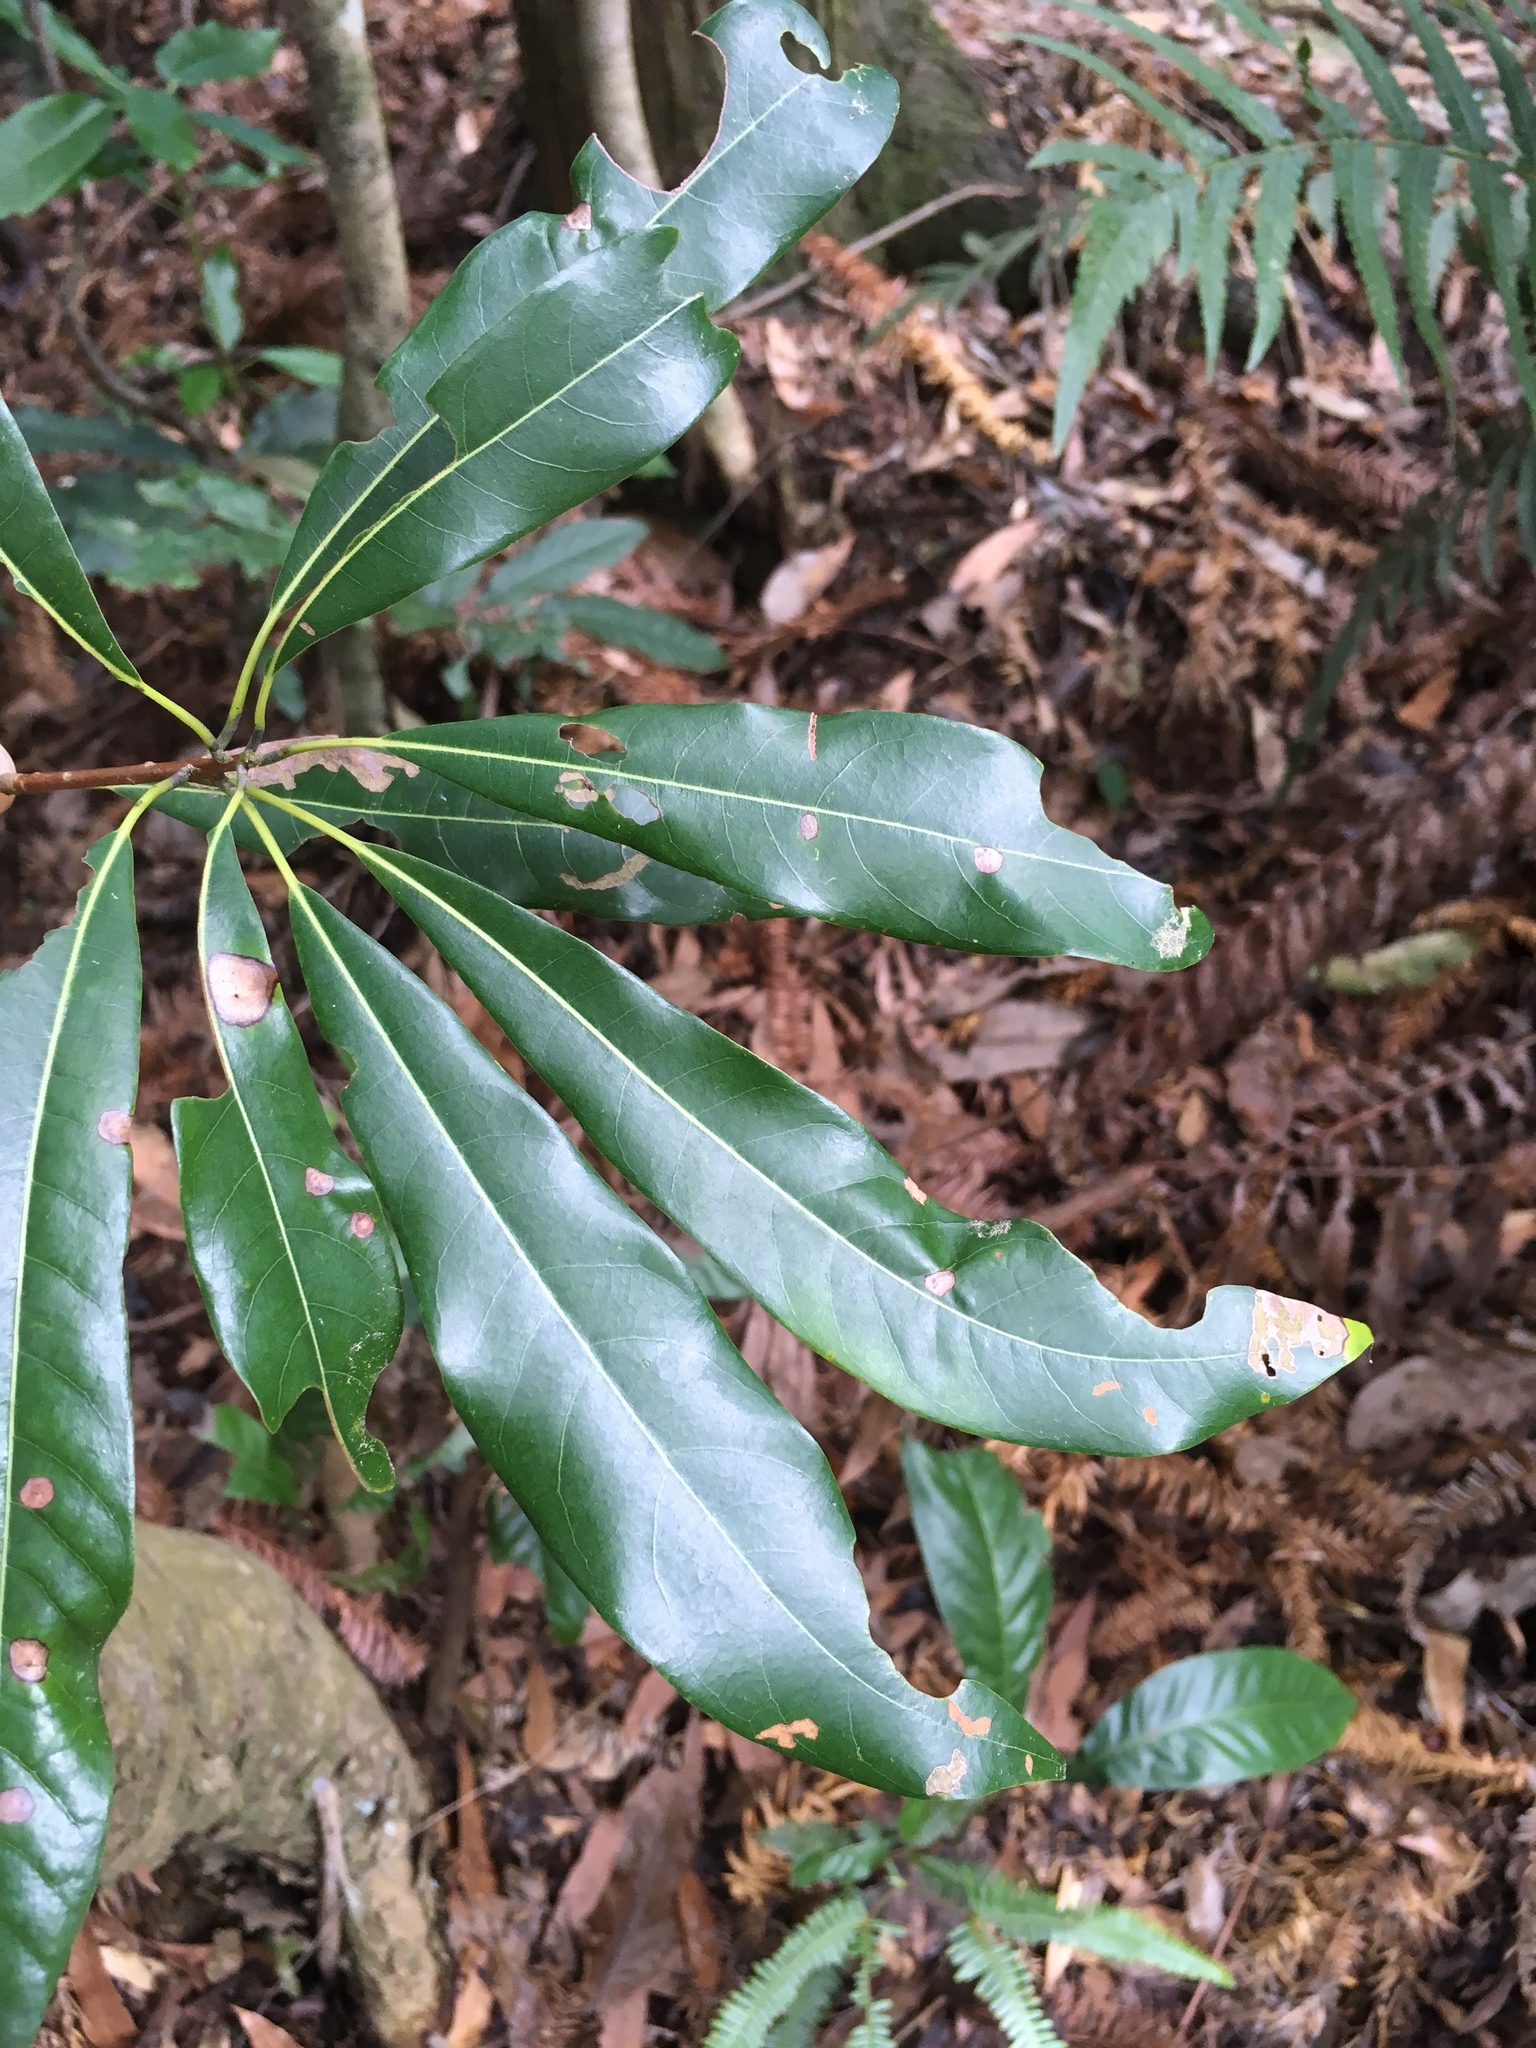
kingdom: Plantae
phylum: Tracheophyta
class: Magnoliopsida
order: Laurales
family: Lauraceae
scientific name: Lauraceae
